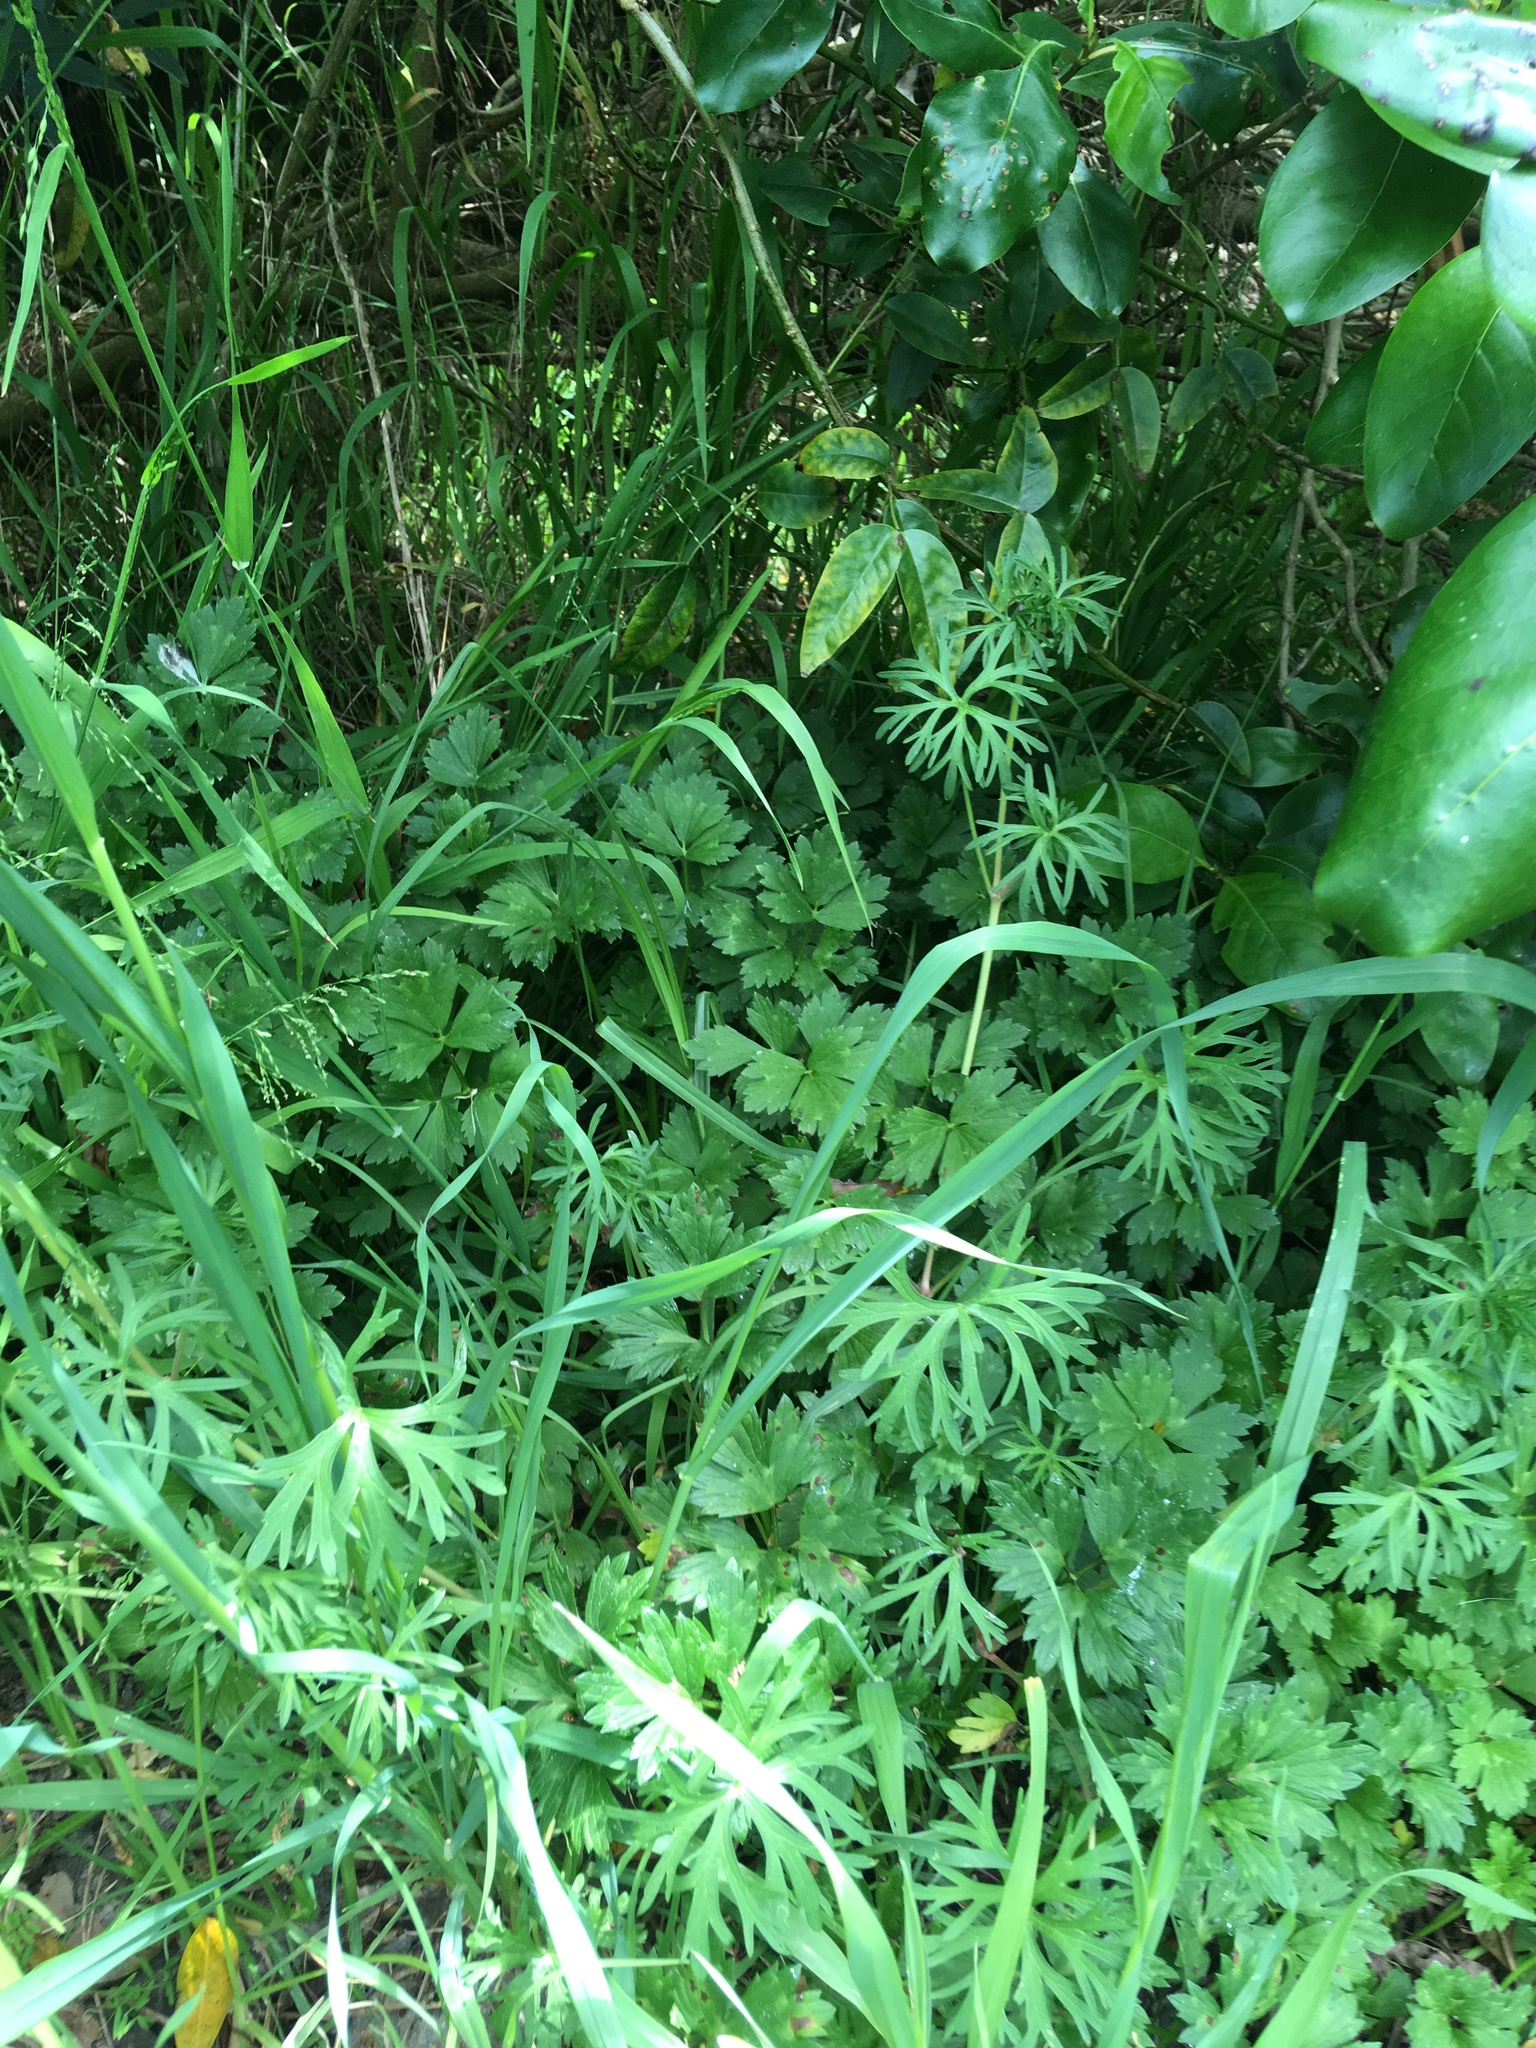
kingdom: Plantae
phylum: Tracheophyta
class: Magnoliopsida
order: Geraniales
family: Geraniaceae
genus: Geranium
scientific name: Geranium dissectum
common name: Cut-leaved crane's-bill
